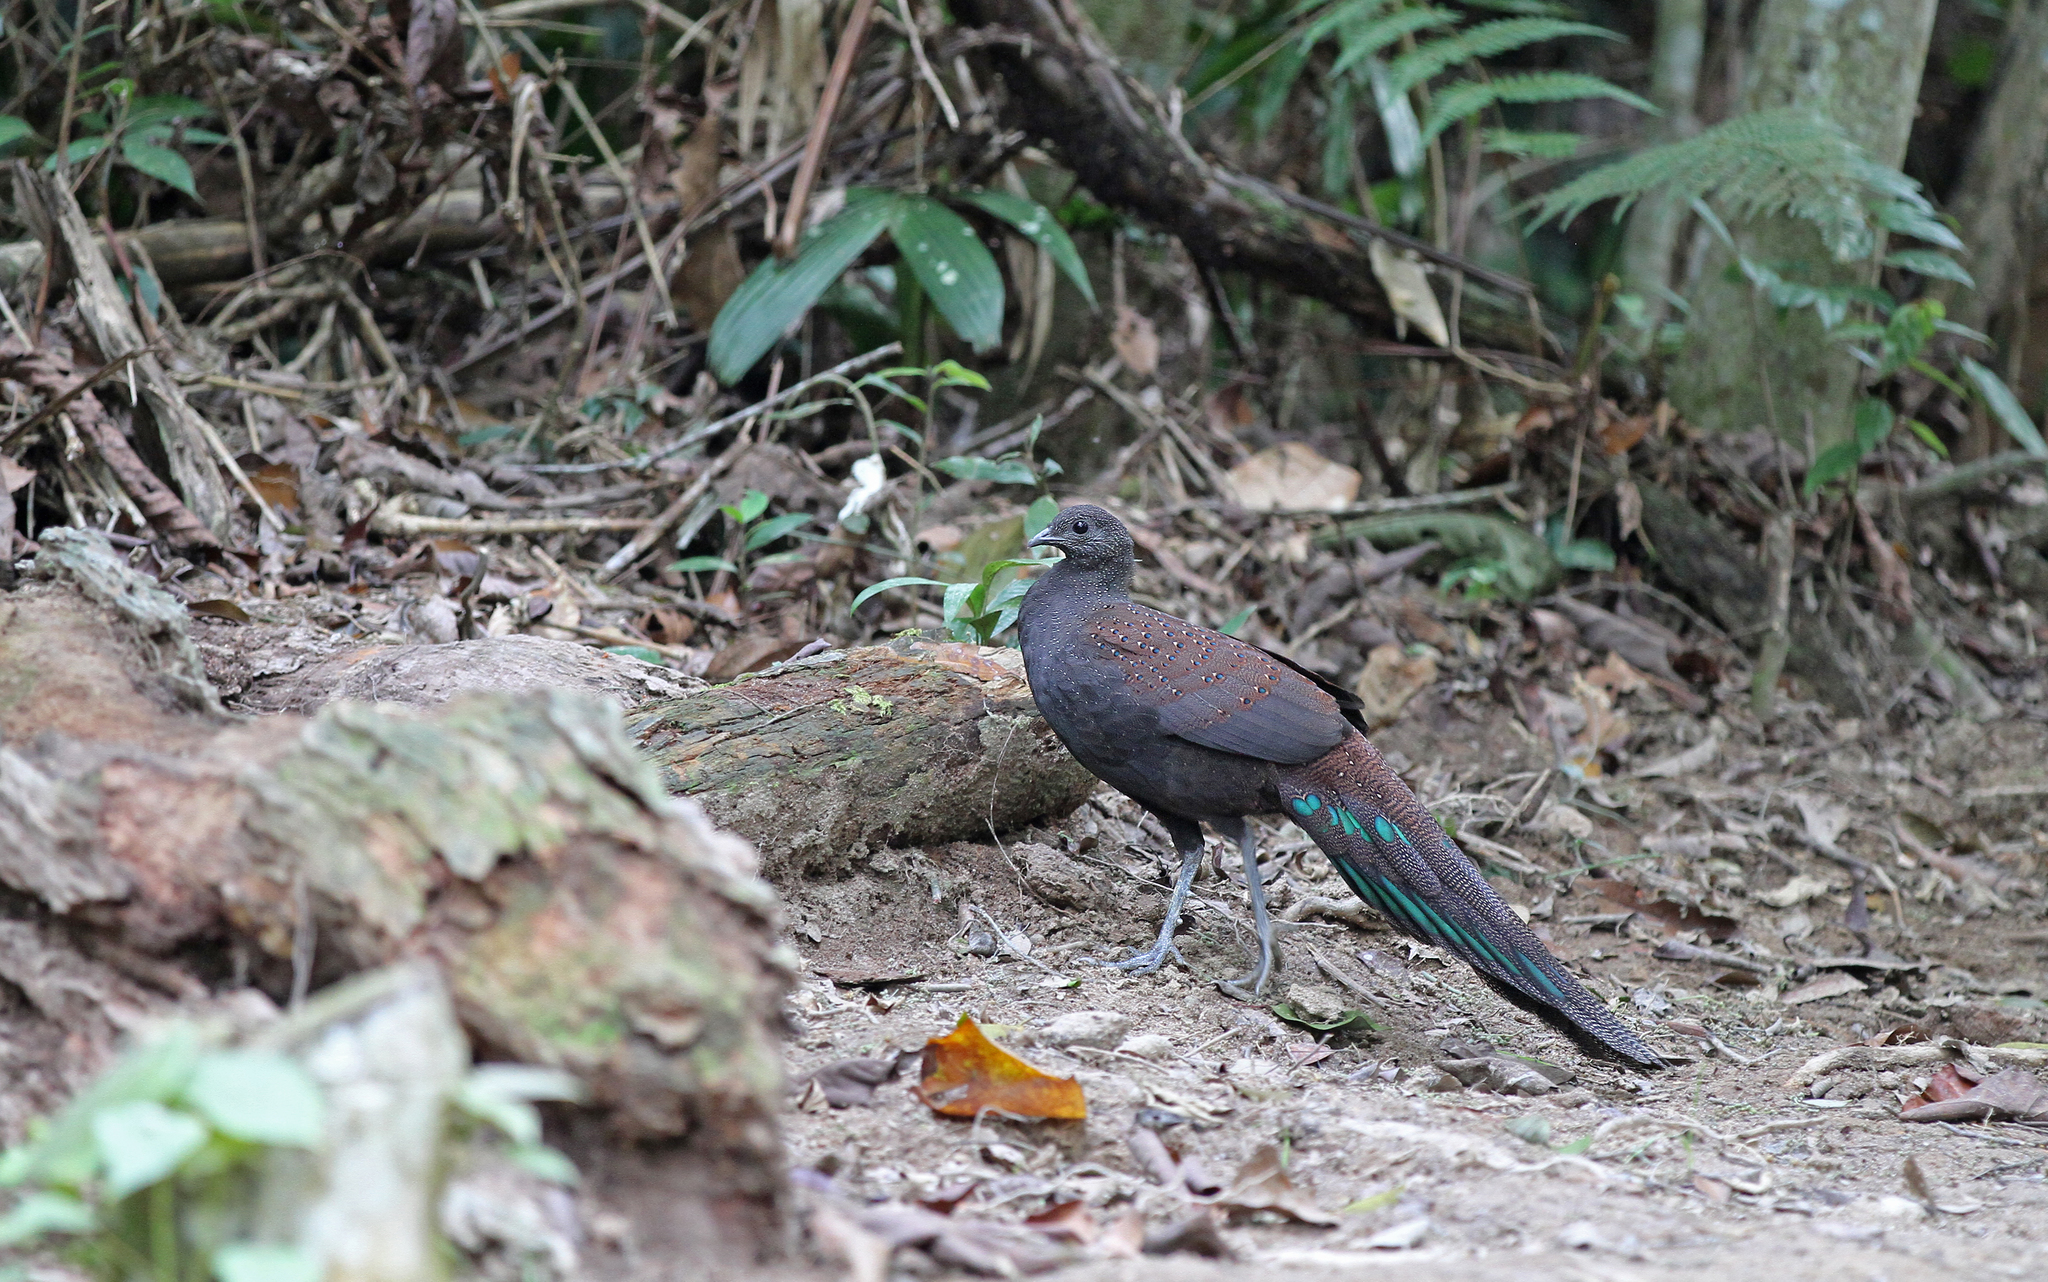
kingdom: Animalia
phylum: Chordata
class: Aves
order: Galliformes
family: Phasianidae
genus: Polyplectron
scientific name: Polyplectron inopinatum
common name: Mountain peacock-pheasant
